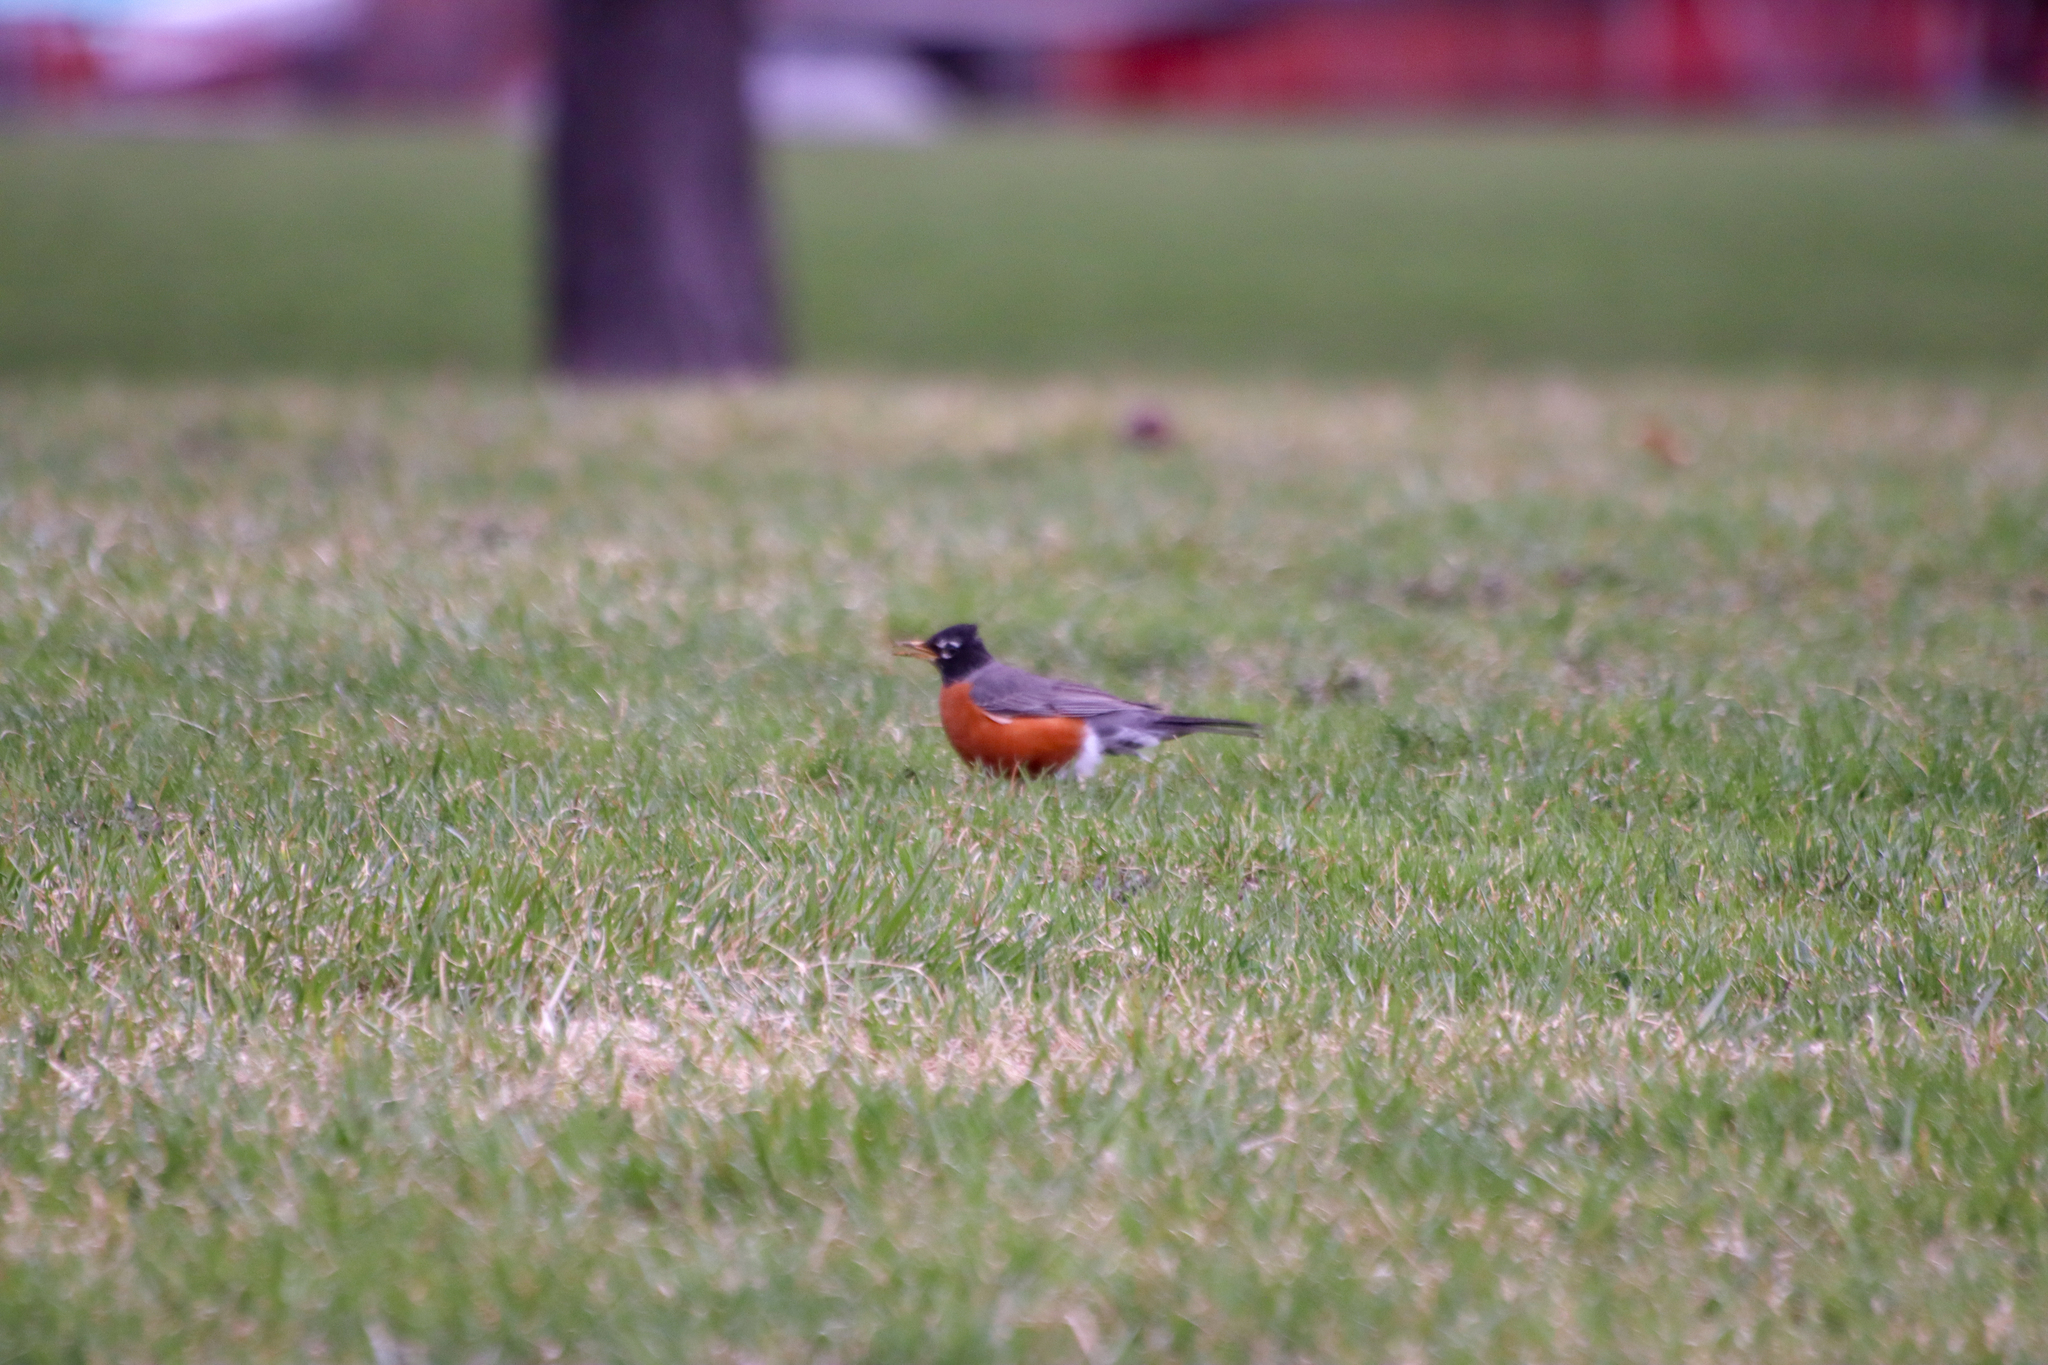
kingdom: Animalia
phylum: Chordata
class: Aves
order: Passeriformes
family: Turdidae
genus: Turdus
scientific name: Turdus migratorius
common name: American robin
